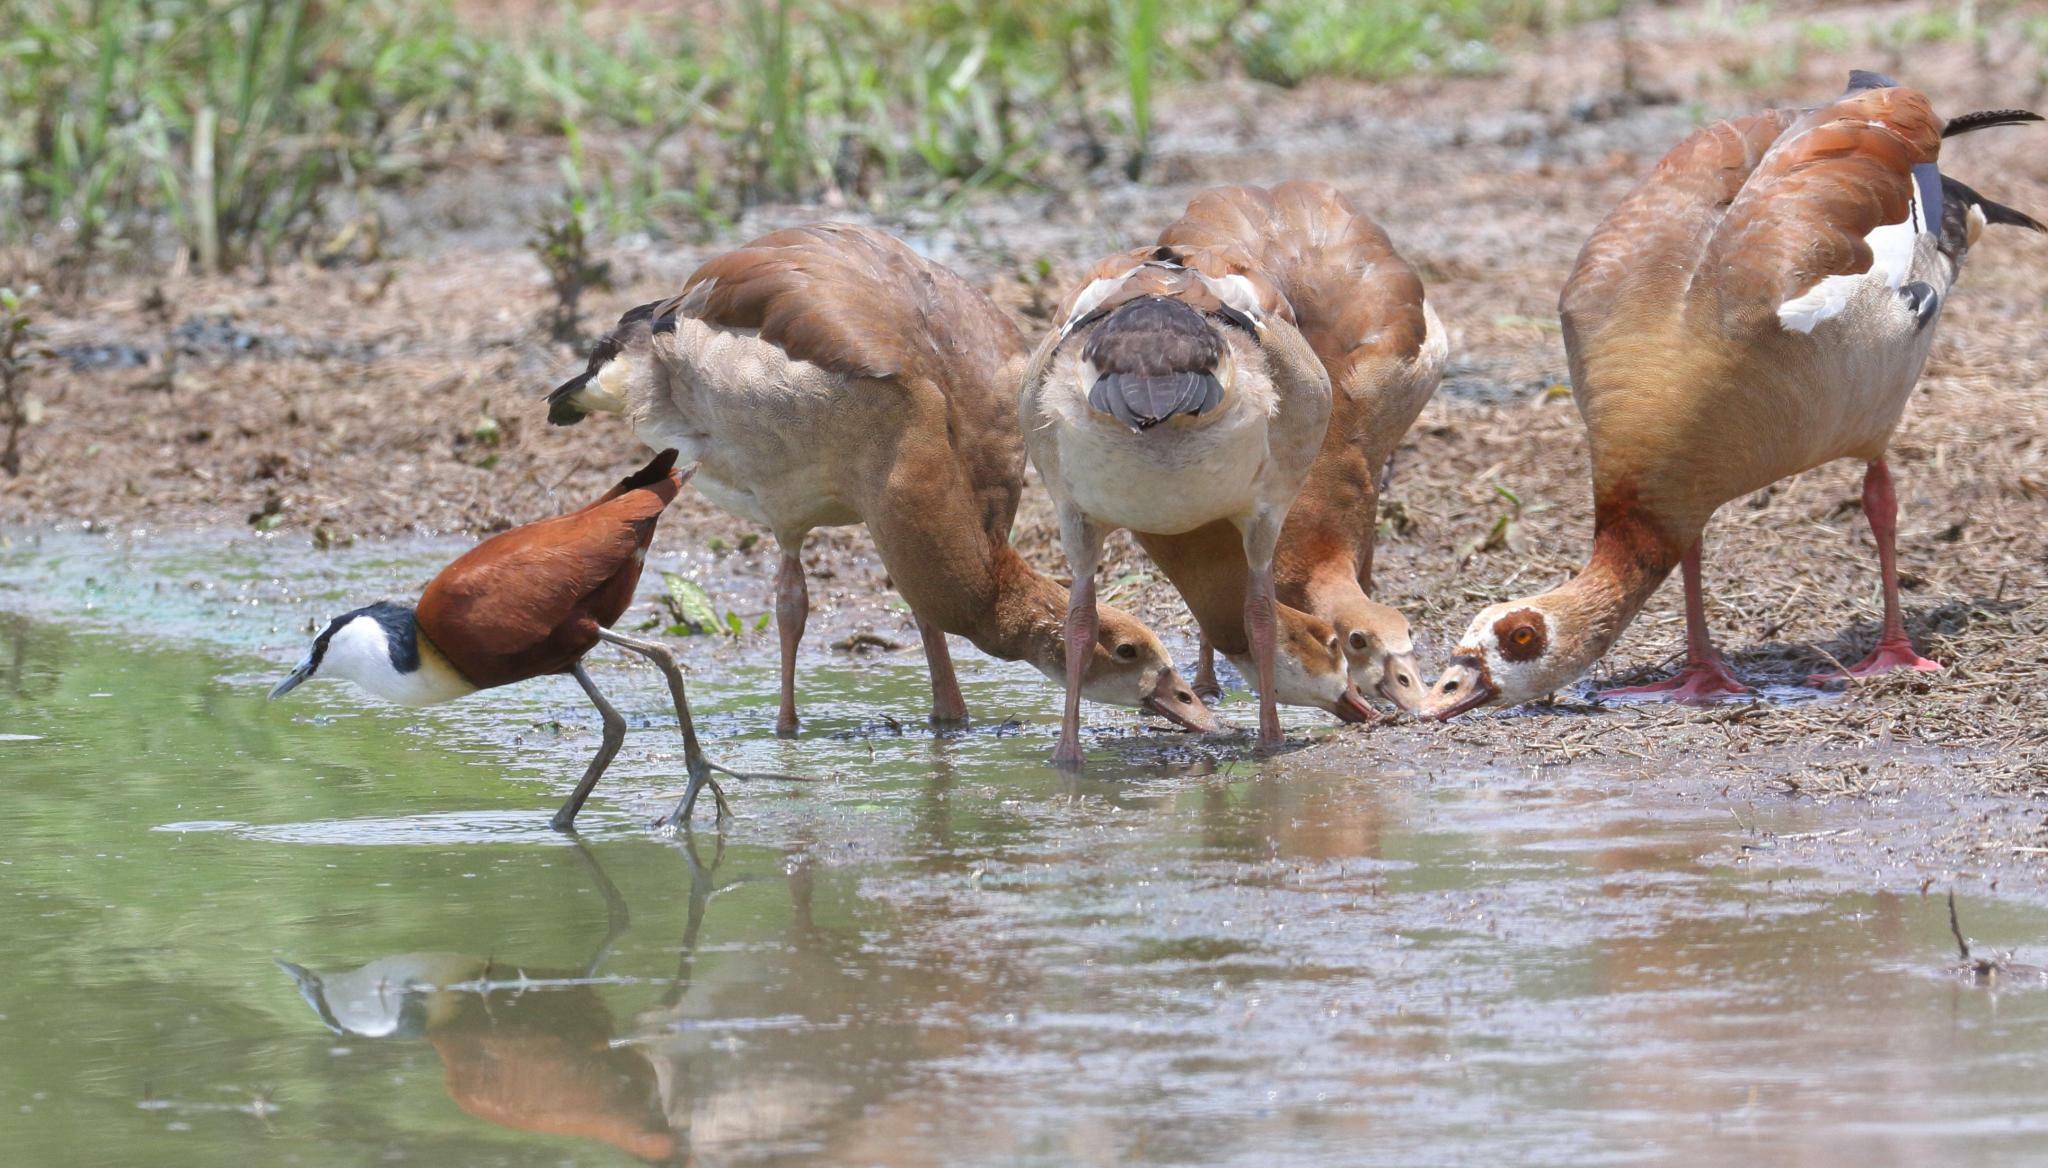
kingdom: Animalia
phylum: Chordata
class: Aves
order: Anseriformes
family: Anatidae
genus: Alopochen
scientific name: Alopochen aegyptiaca
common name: Egyptian goose
